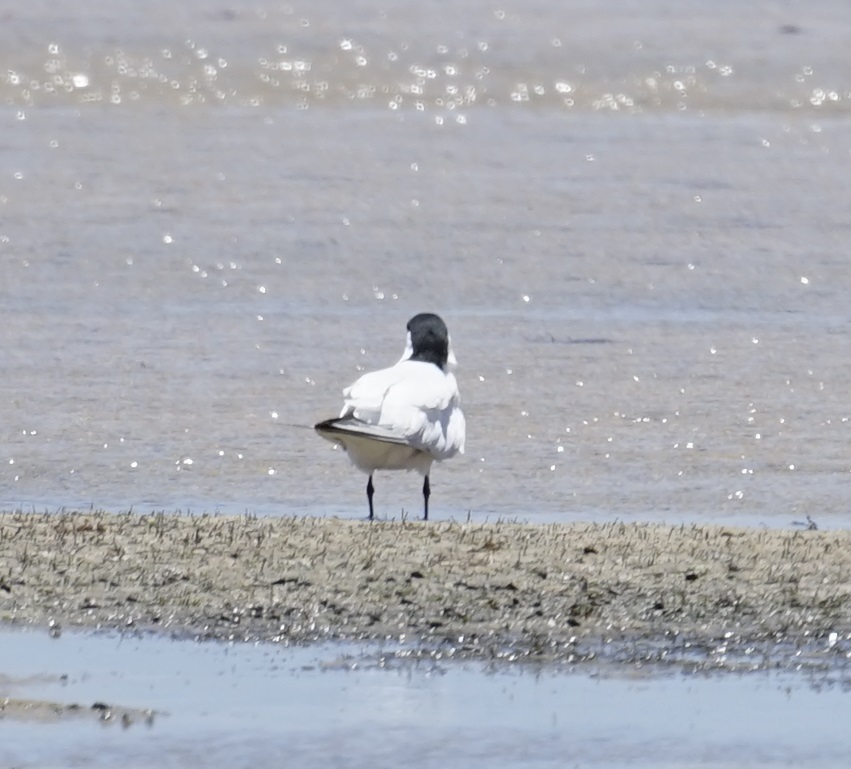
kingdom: Animalia
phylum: Chordata
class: Aves
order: Charadriiformes
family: Laridae
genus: Gelochelidon
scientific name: Gelochelidon macrotarsa
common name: Australian tern
